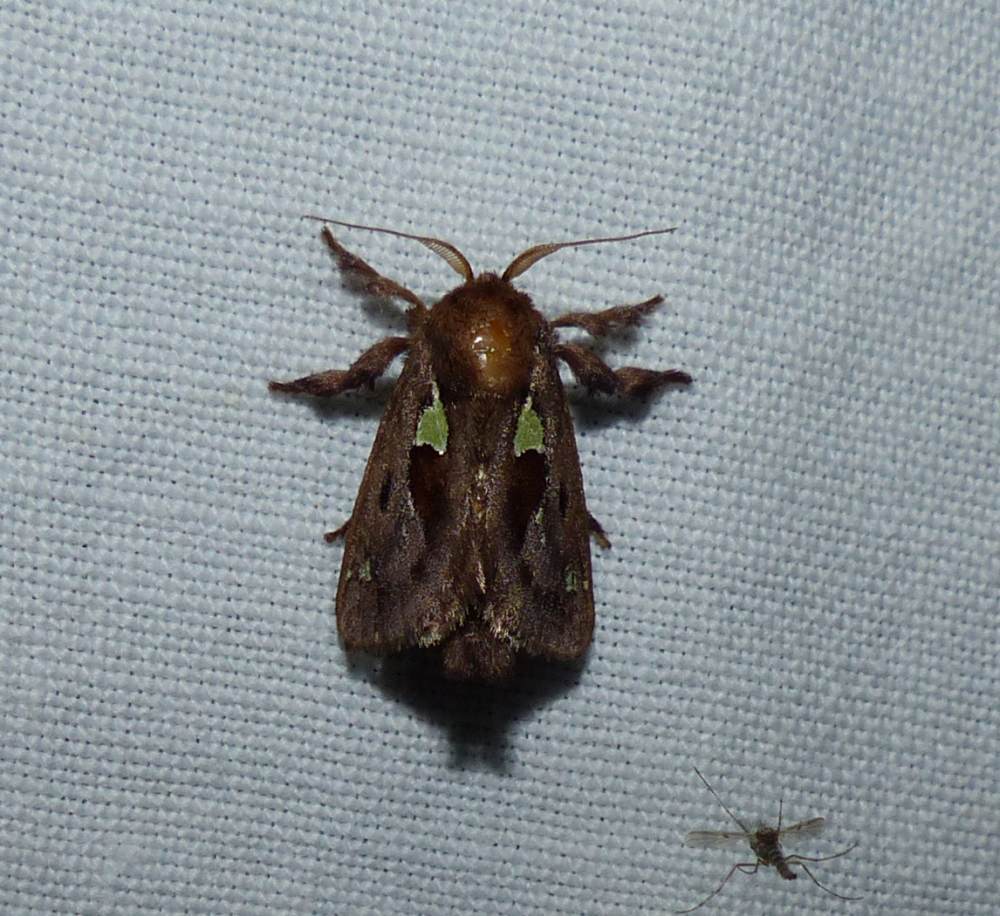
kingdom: Animalia
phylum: Arthropoda
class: Insecta
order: Lepidoptera
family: Limacodidae
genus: Euclea
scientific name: Euclea delphinii
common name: Spiny oak-slug moth
